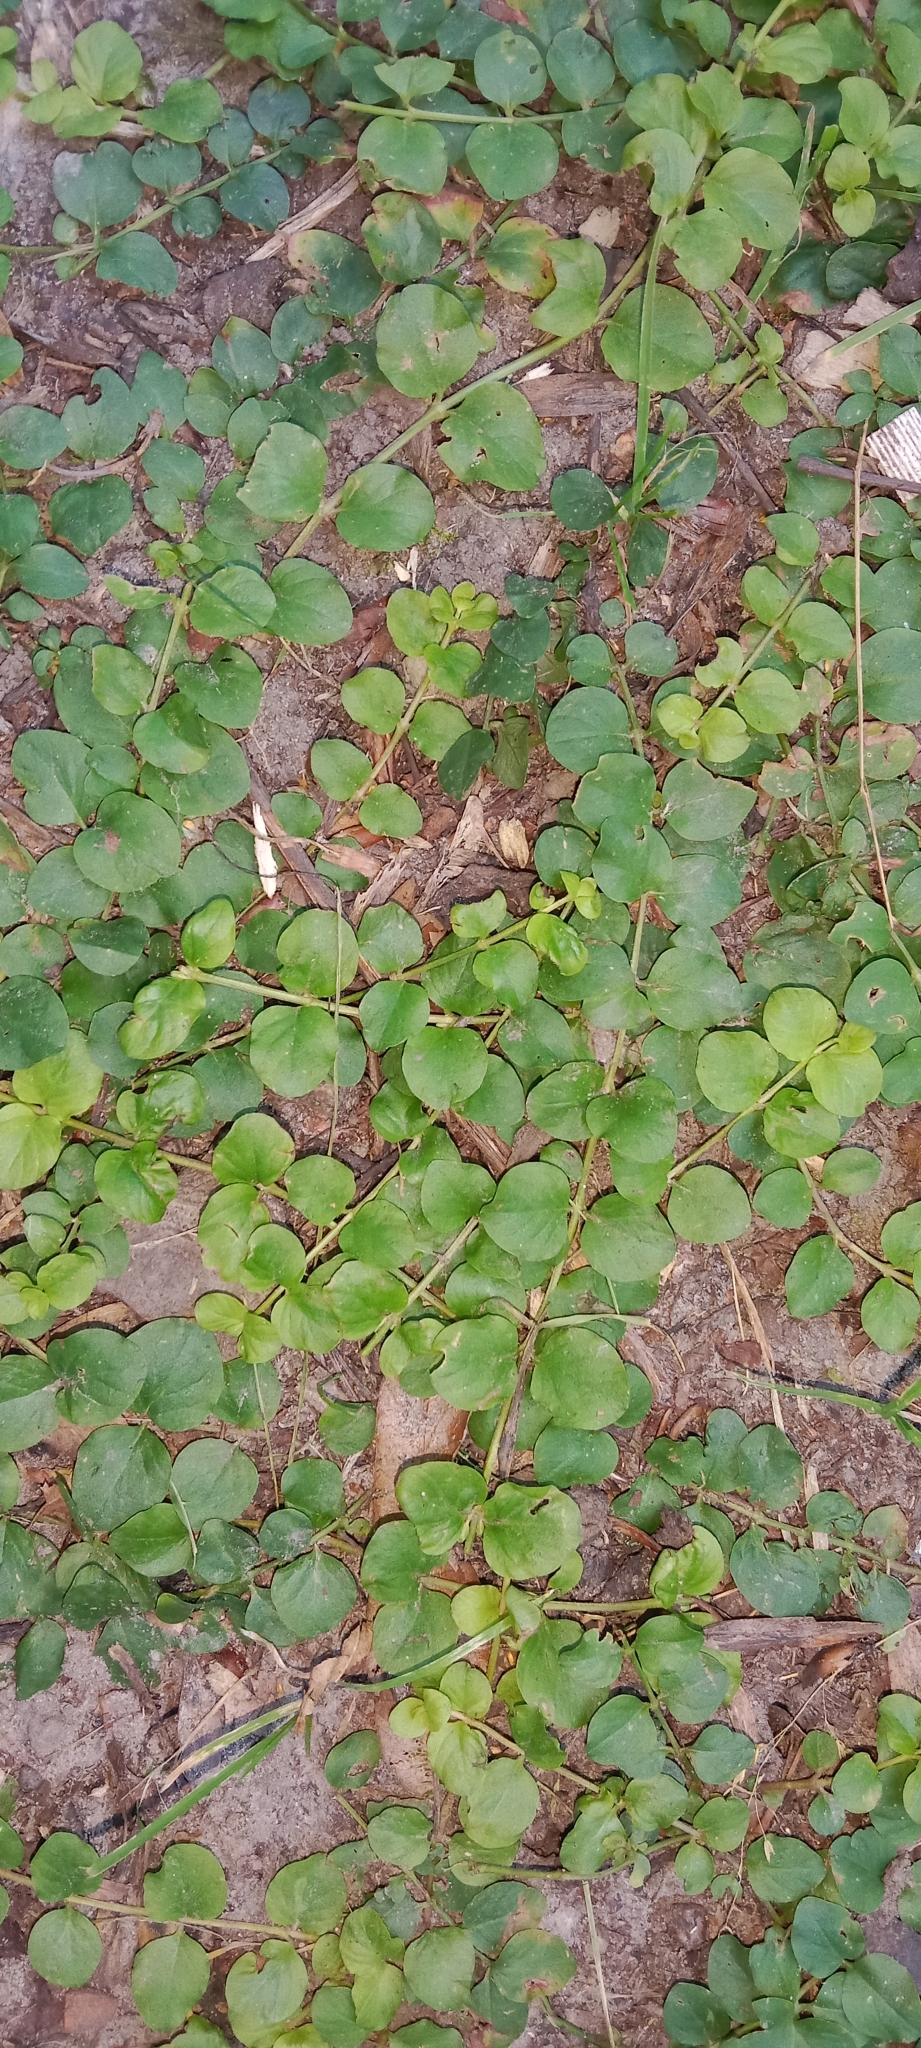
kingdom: Plantae
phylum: Tracheophyta
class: Magnoliopsida
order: Ericales
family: Primulaceae
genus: Lysimachia
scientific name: Lysimachia nummularia
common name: Moneywort
